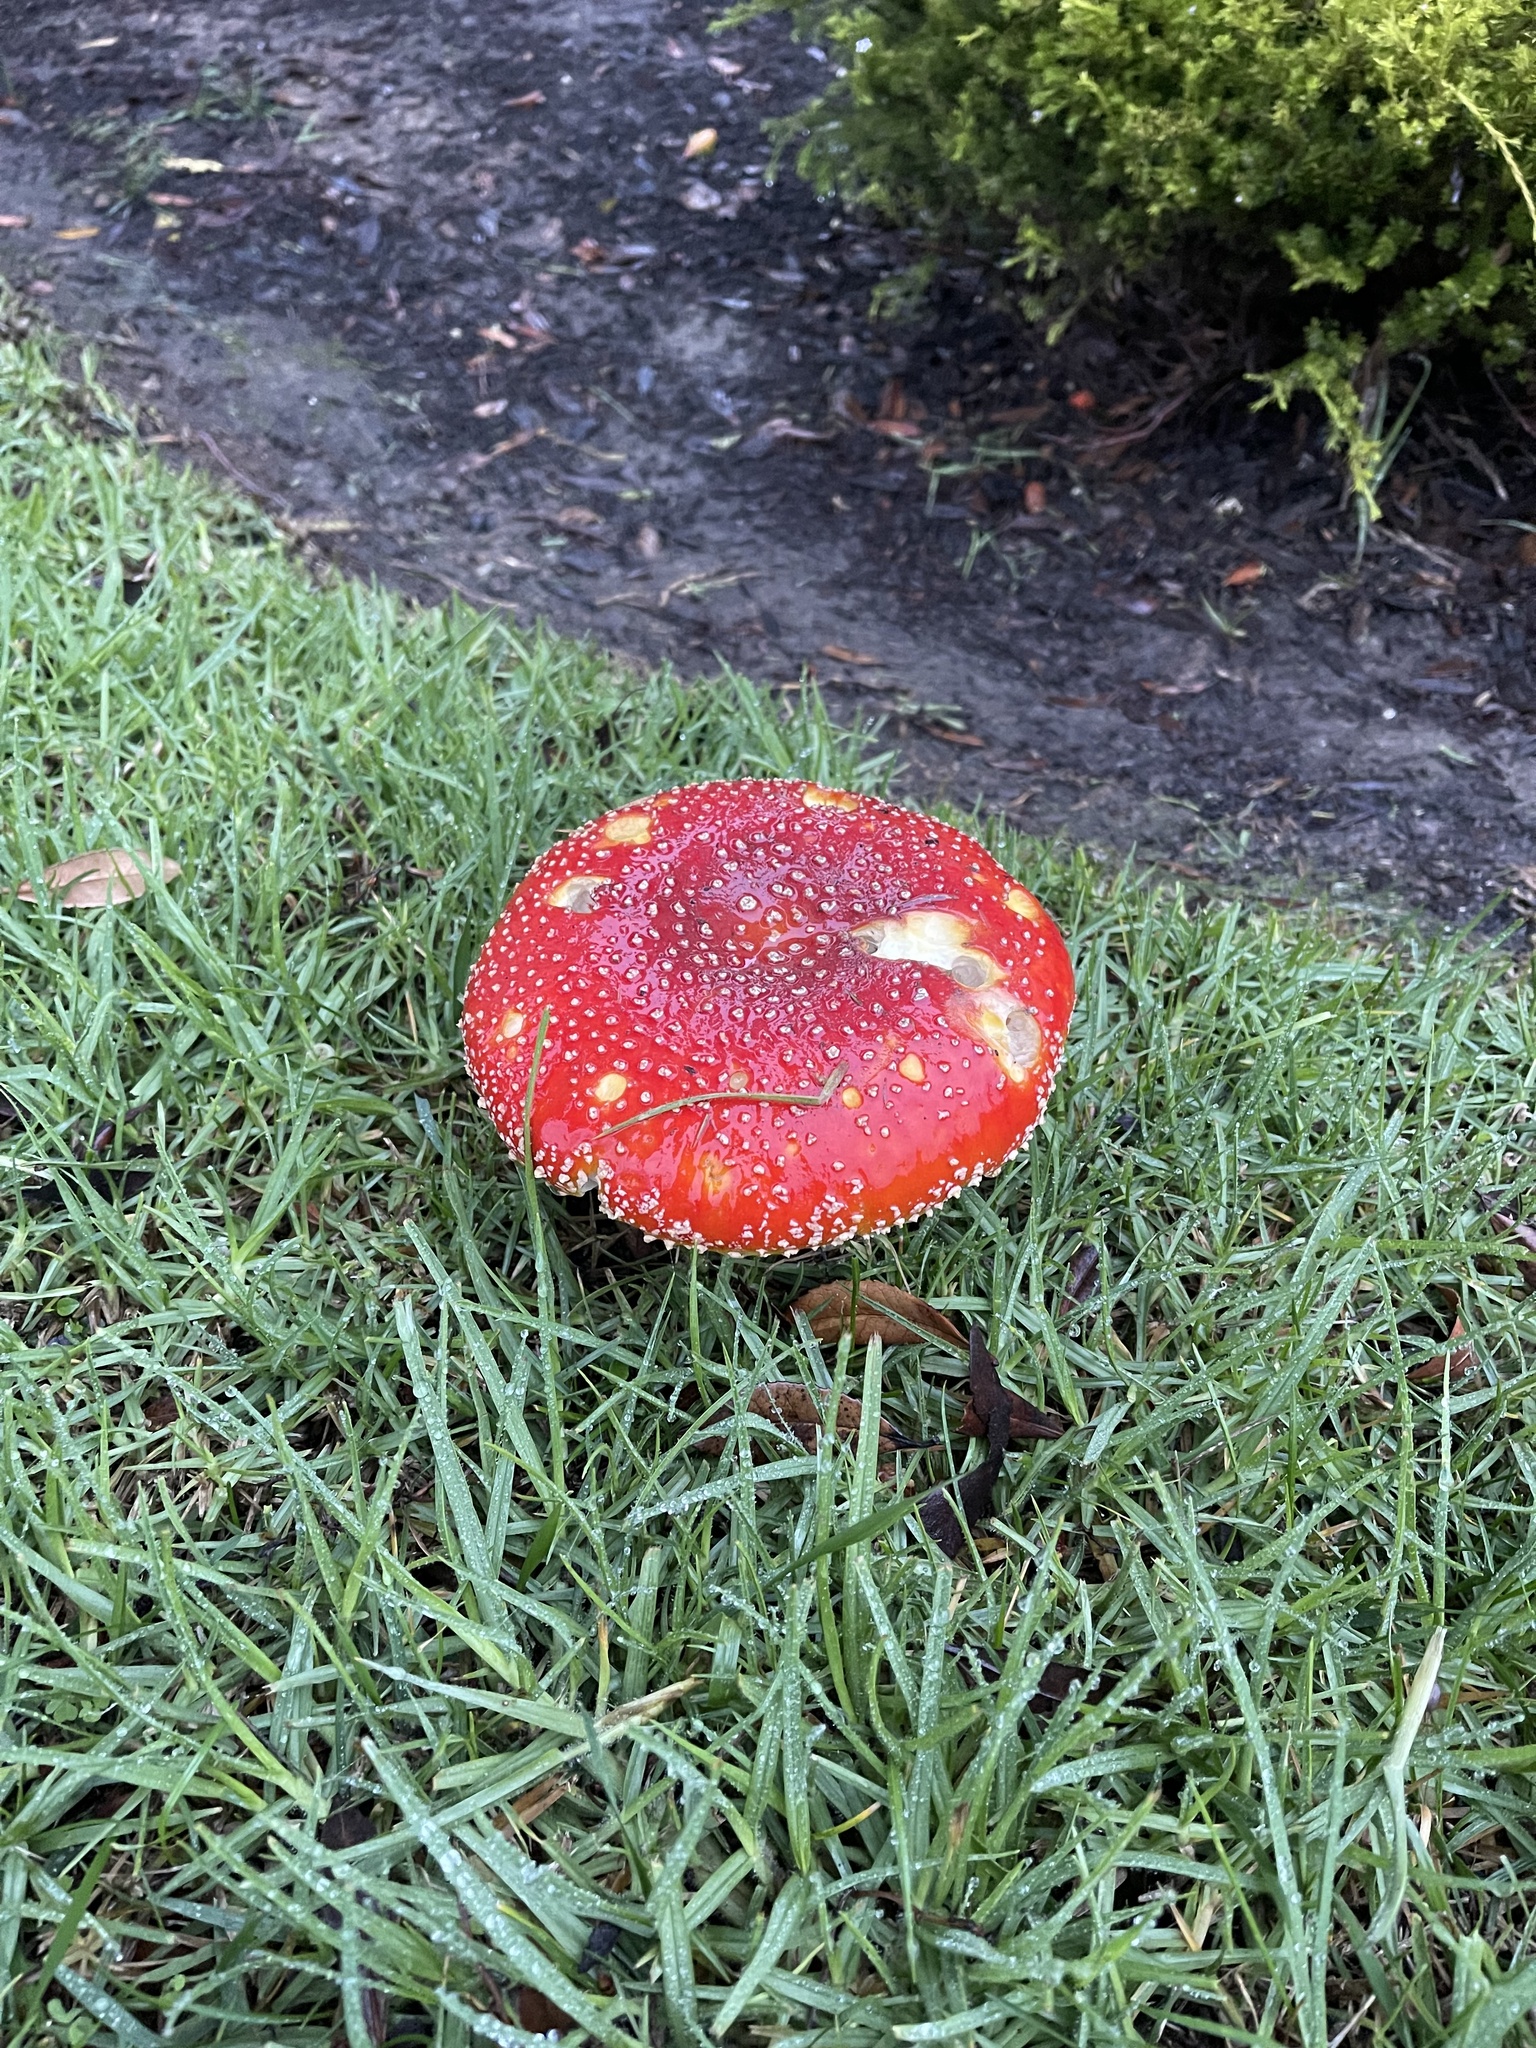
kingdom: Fungi
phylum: Basidiomycota
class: Agaricomycetes
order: Agaricales
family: Amanitaceae
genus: Amanita
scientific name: Amanita muscaria
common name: Fly agaric
